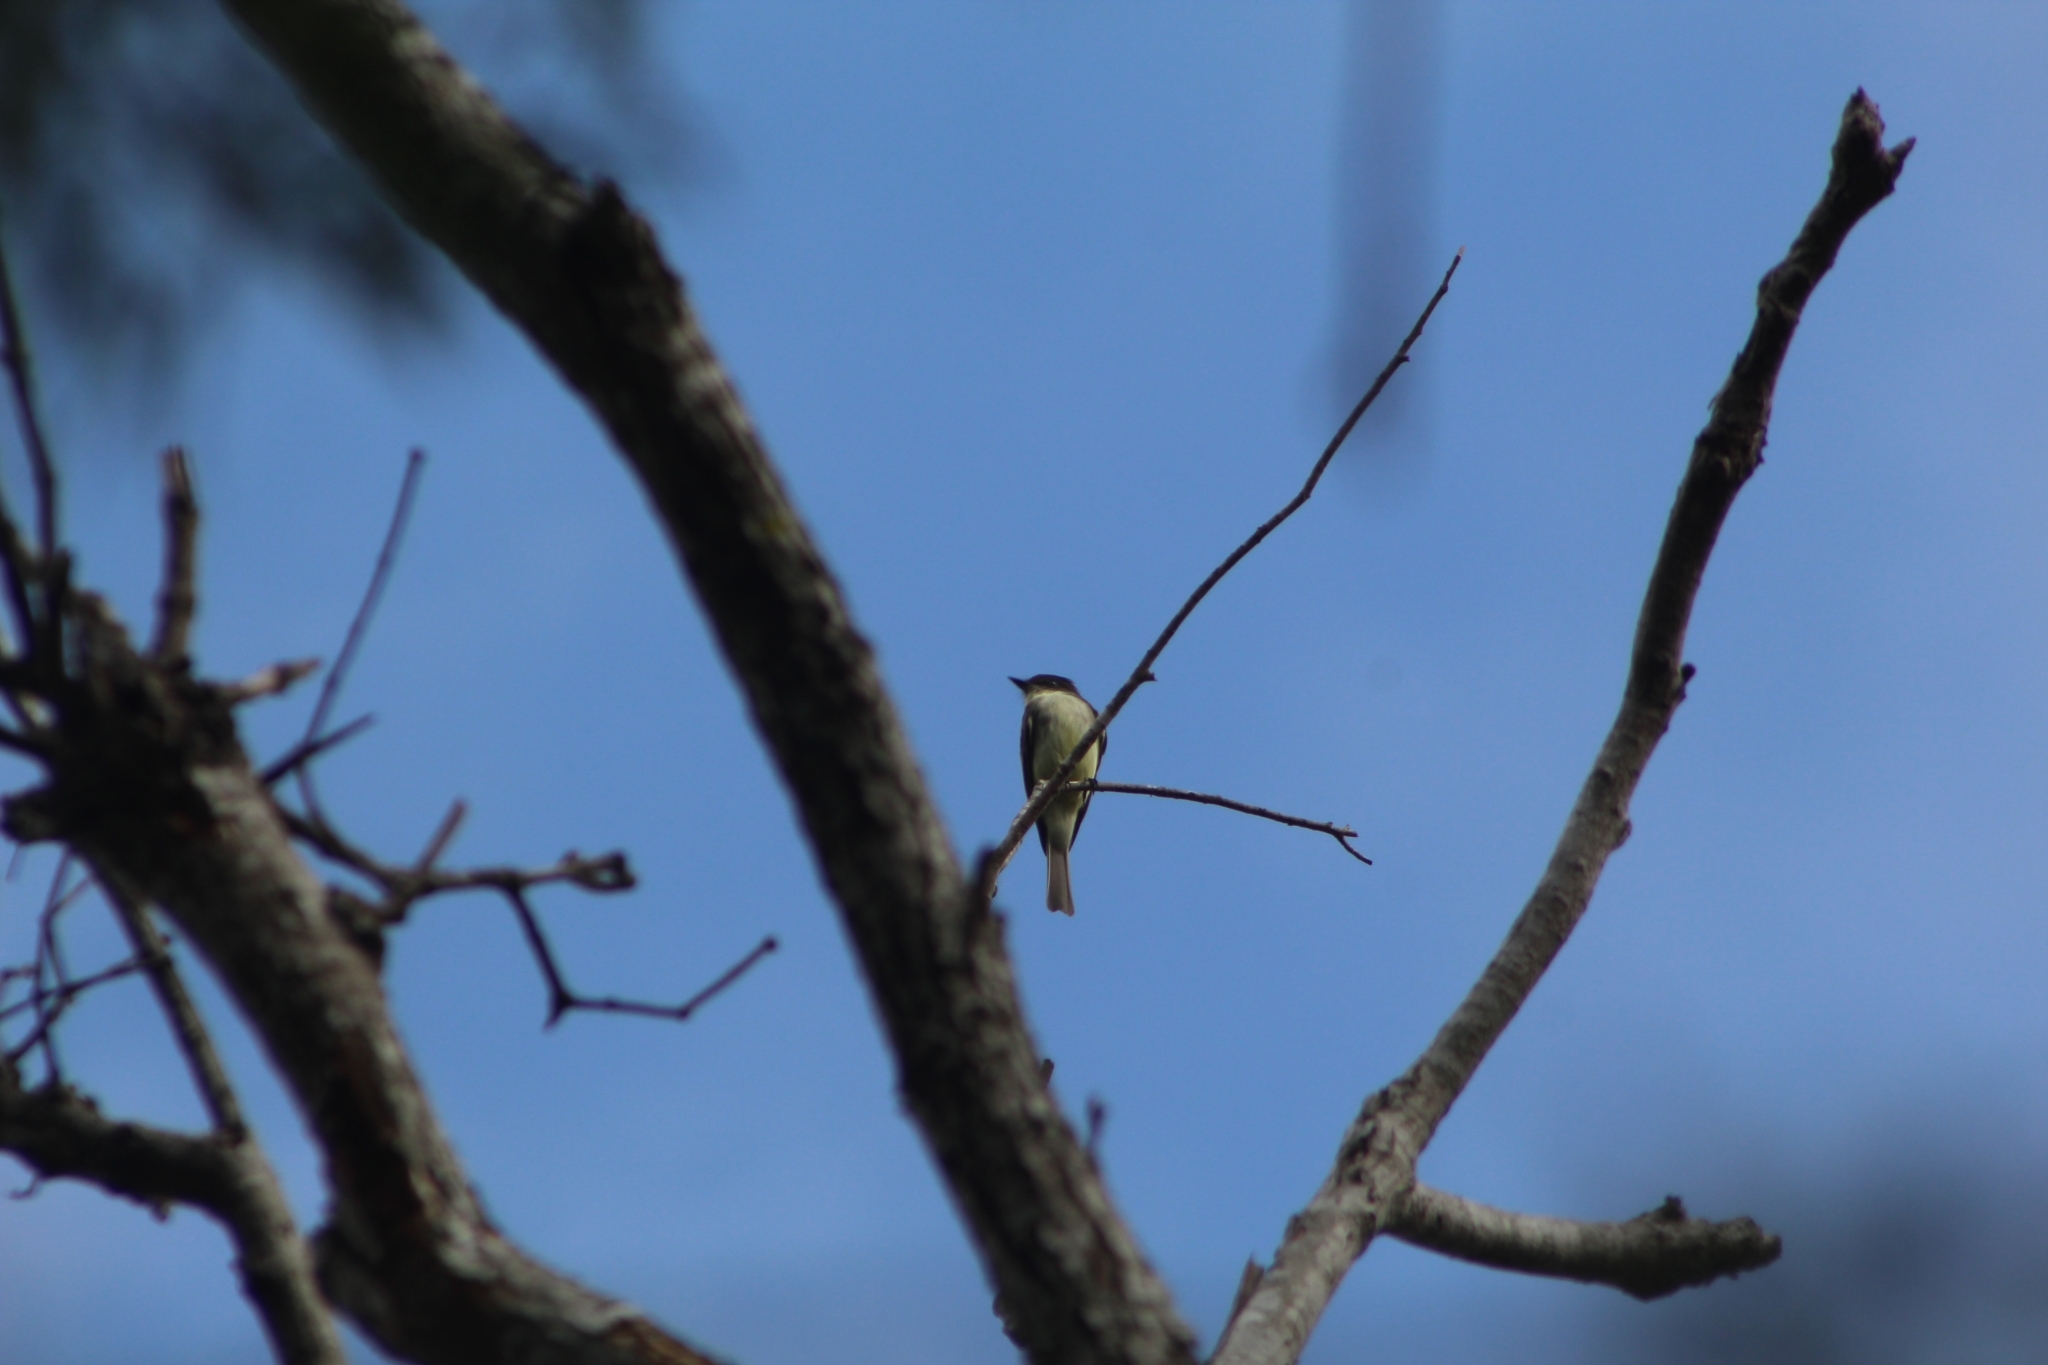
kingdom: Animalia
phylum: Chordata
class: Aves
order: Passeriformes
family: Tyrannidae
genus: Sayornis
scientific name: Sayornis phoebe
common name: Eastern phoebe
